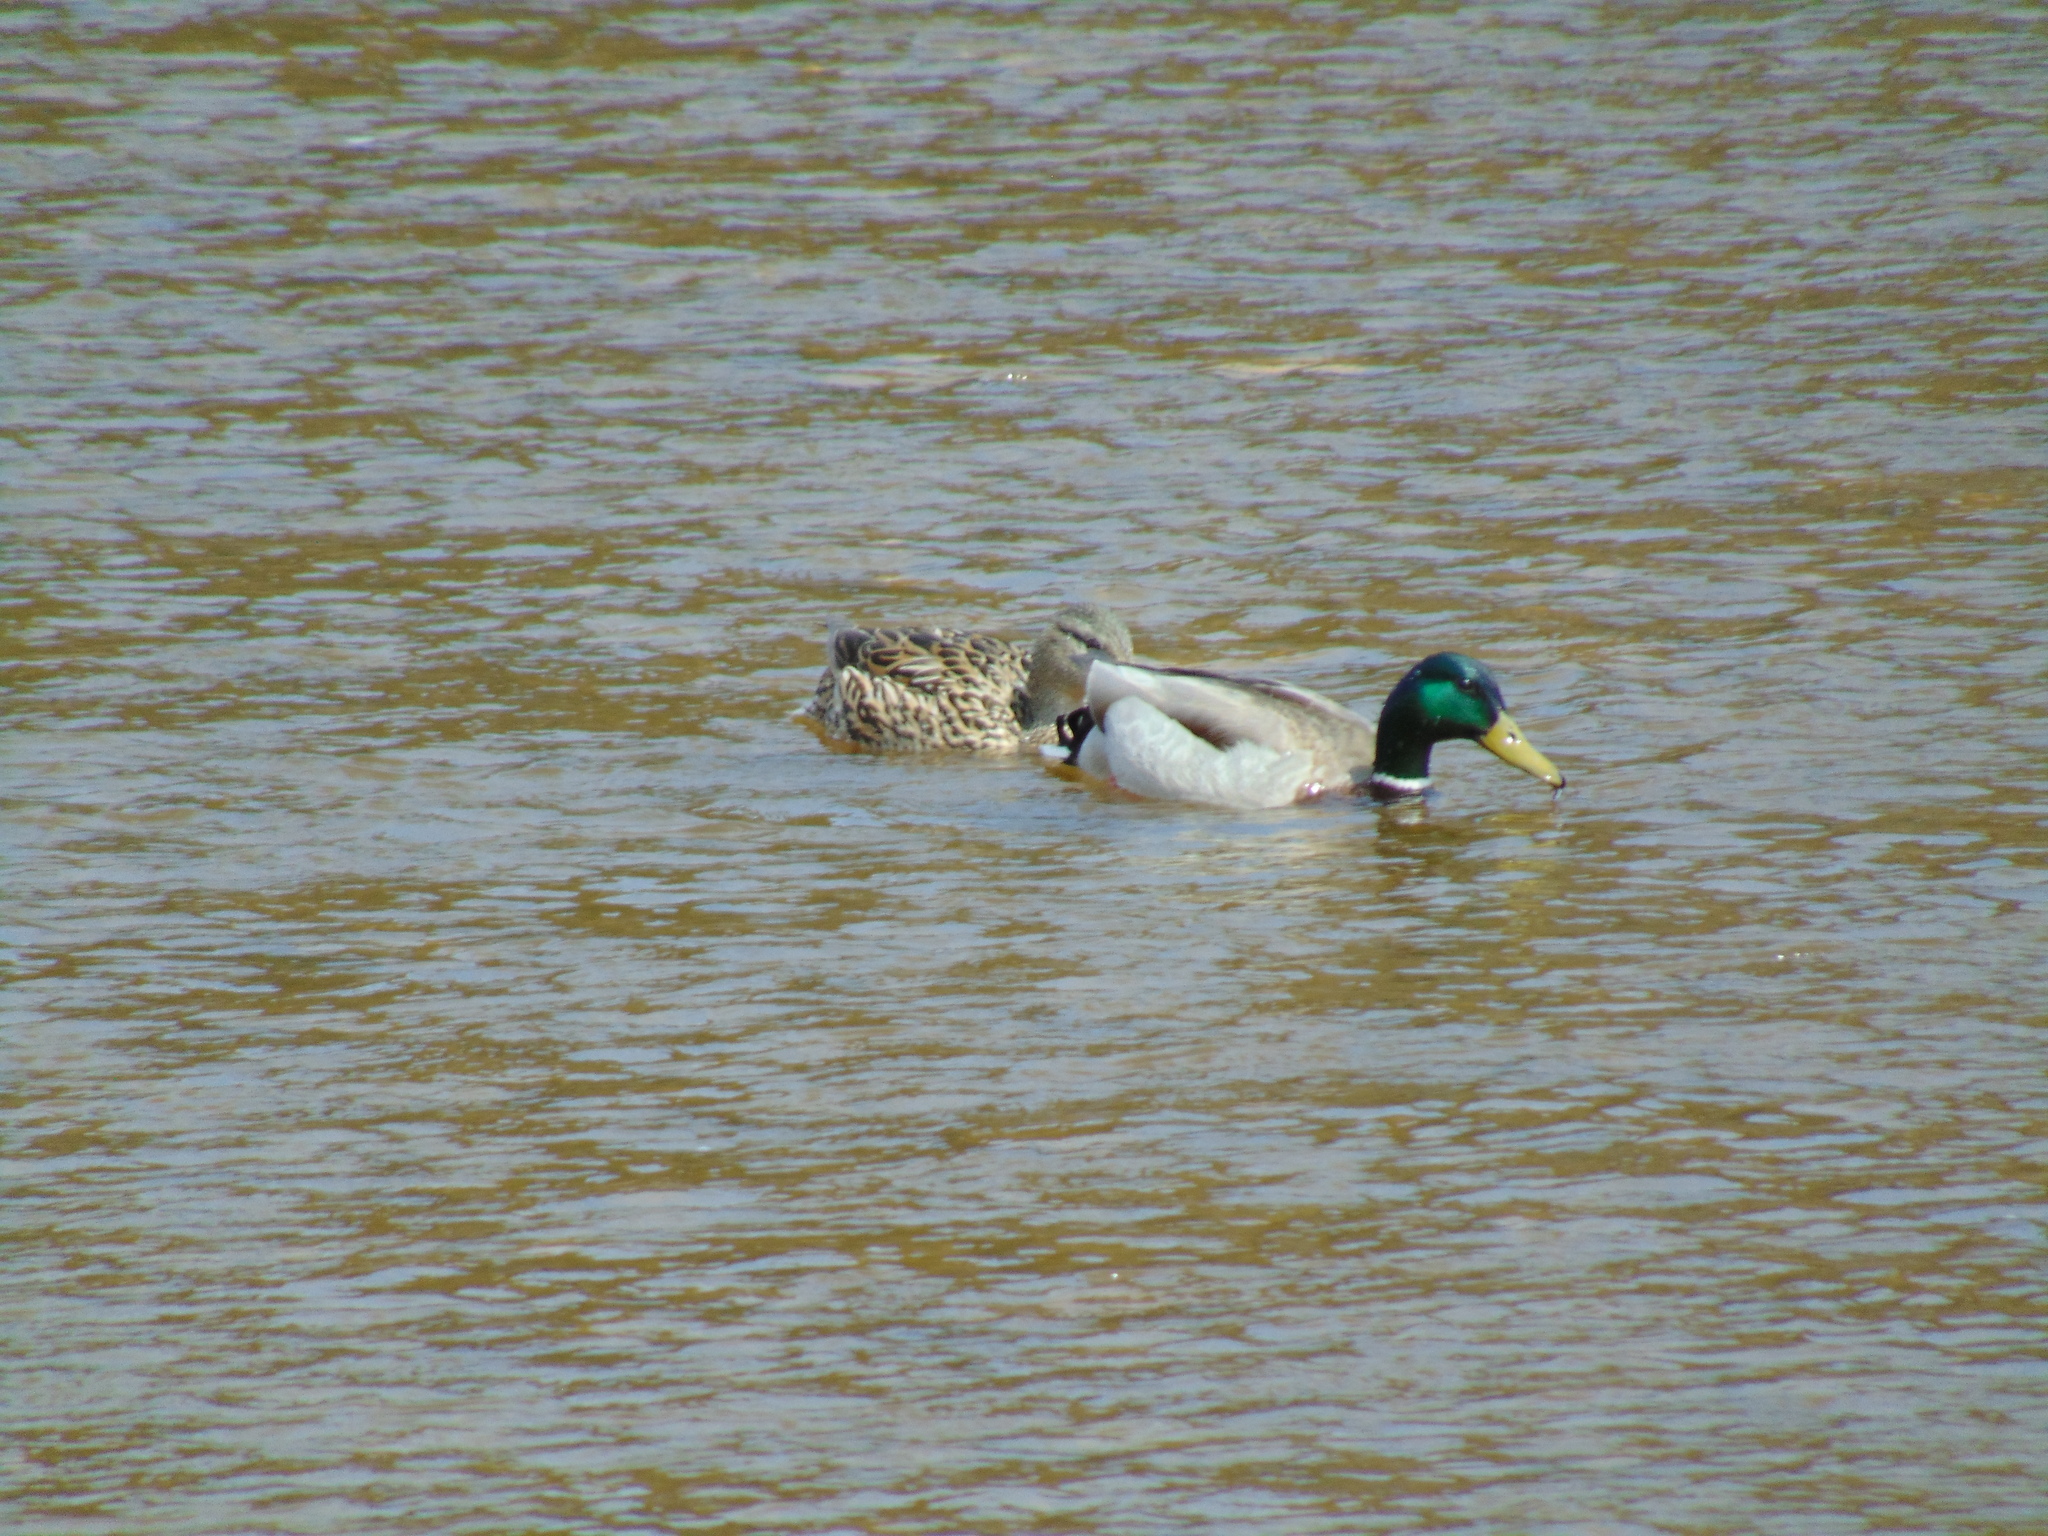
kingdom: Animalia
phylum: Chordata
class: Aves
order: Anseriformes
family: Anatidae
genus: Anas
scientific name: Anas platyrhynchos
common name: Mallard
